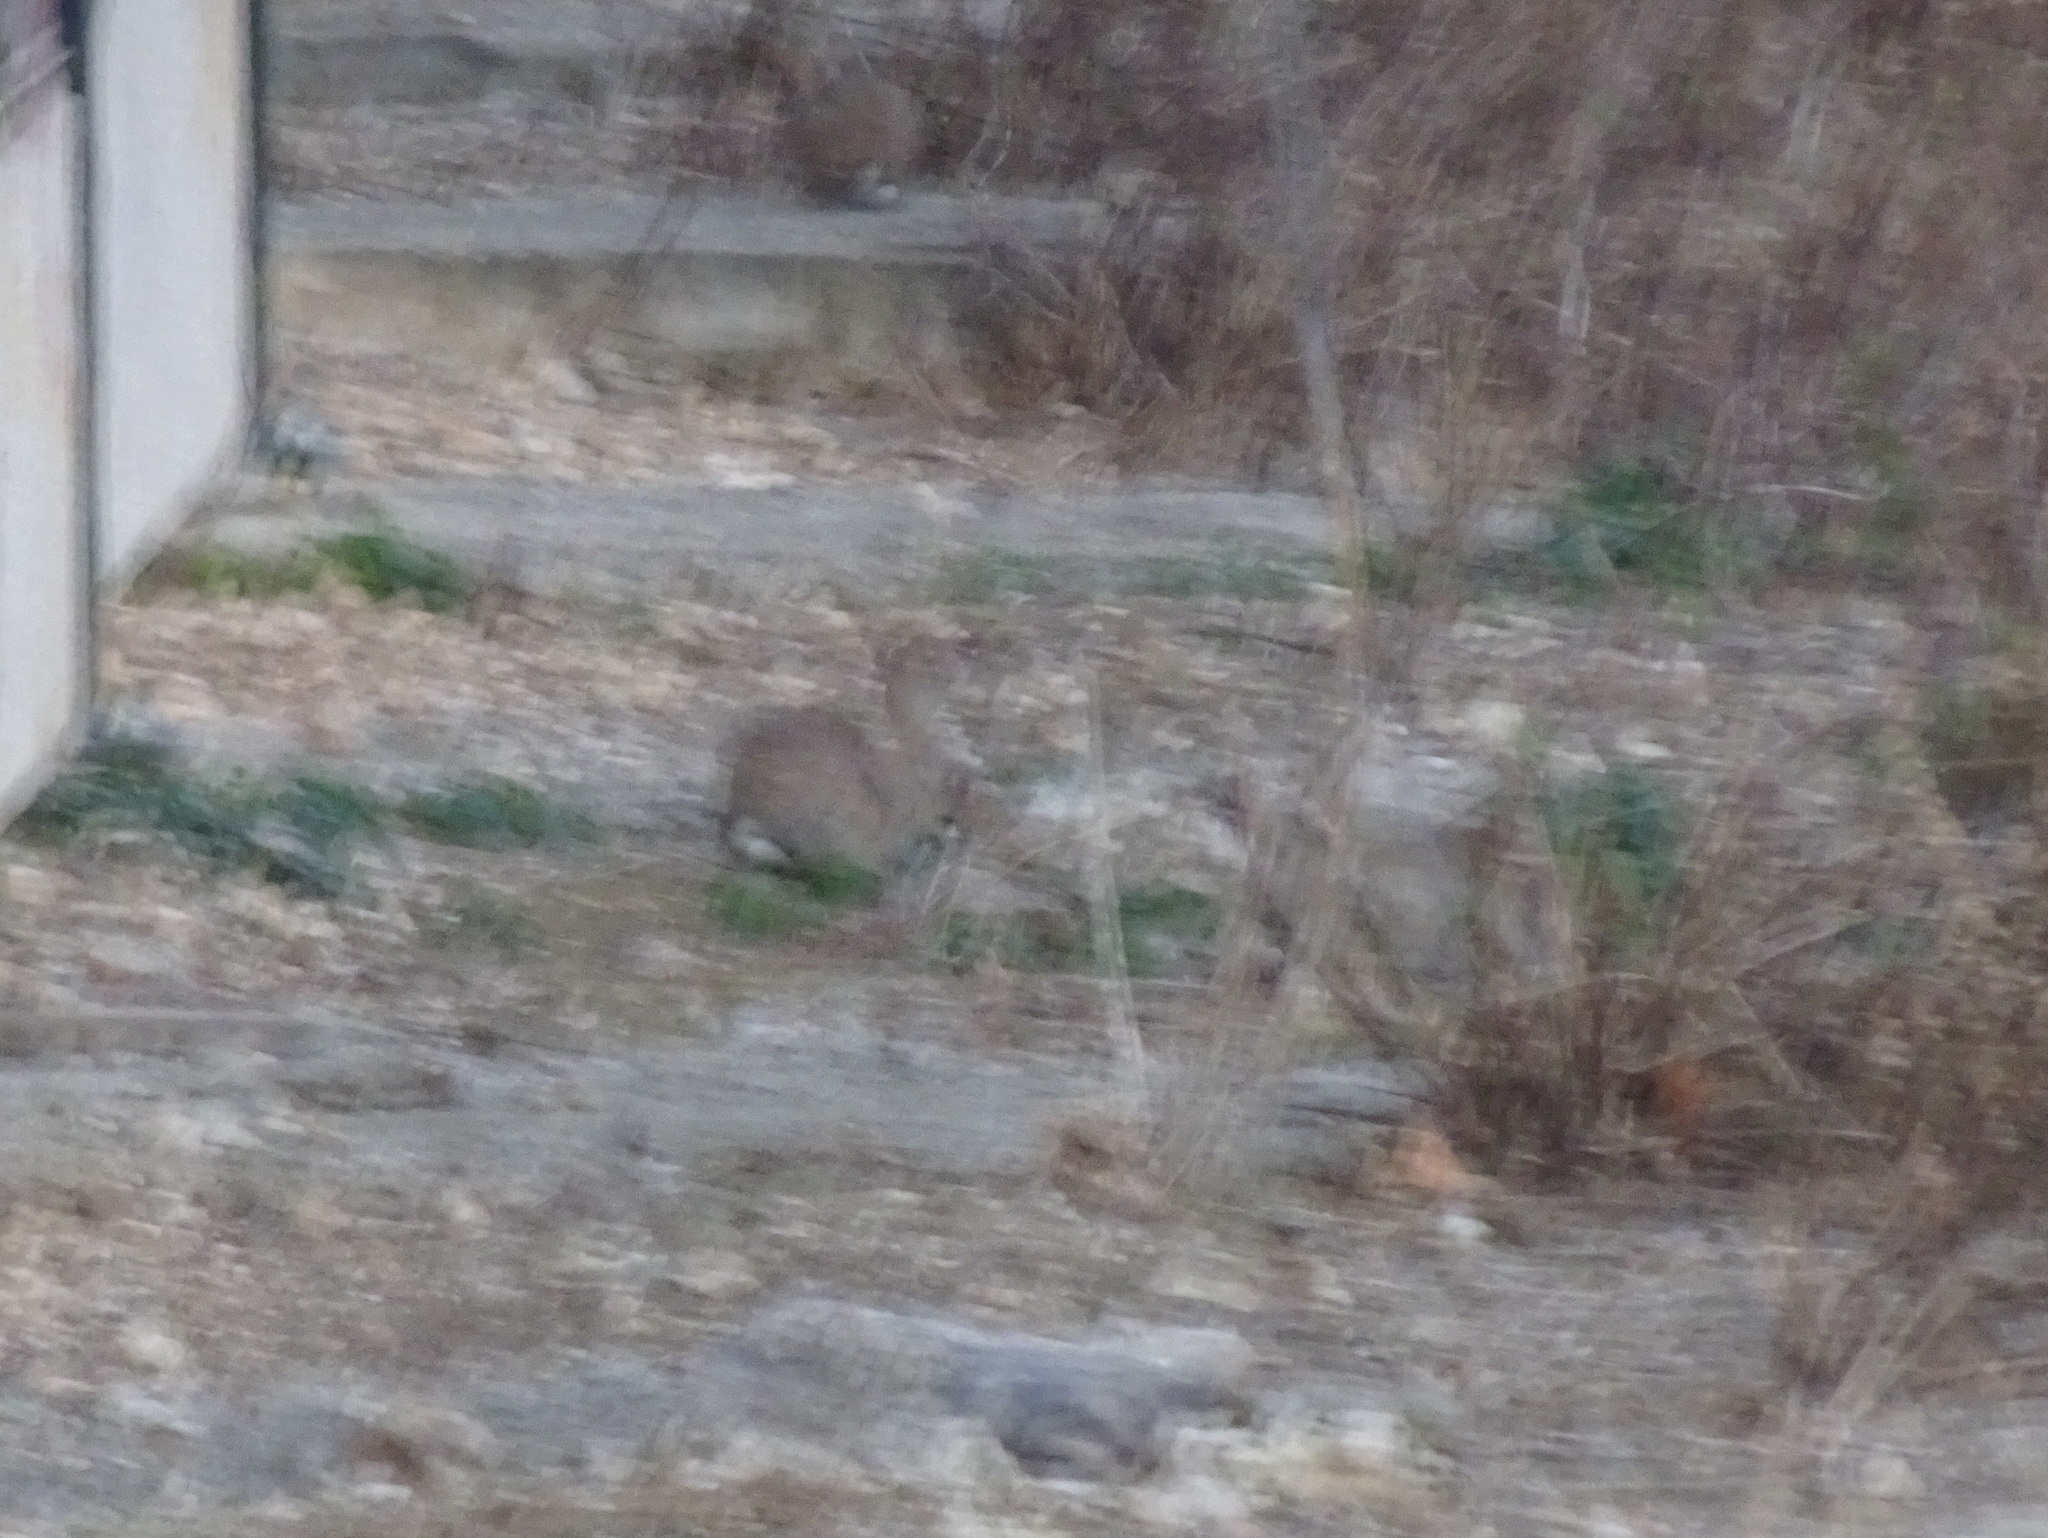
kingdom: Animalia
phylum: Chordata
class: Mammalia
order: Lagomorpha
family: Leporidae
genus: Oryctolagus
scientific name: Oryctolagus cuniculus
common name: European rabbit
